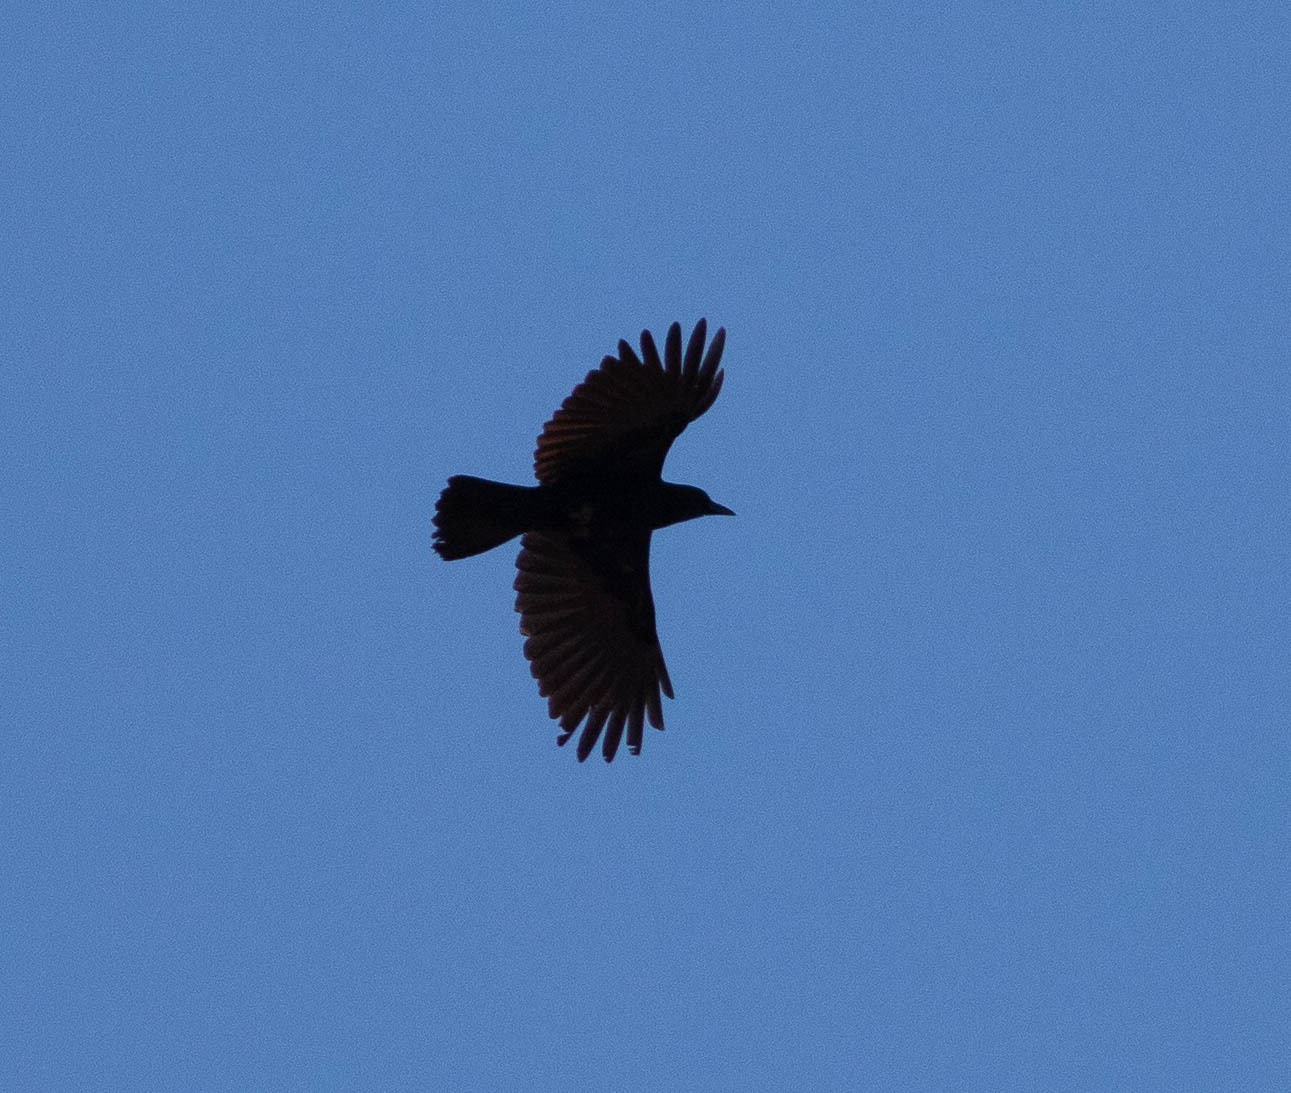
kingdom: Animalia
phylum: Chordata
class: Aves
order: Passeriformes
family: Corvidae
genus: Corvus
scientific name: Corvus brachyrhynchos
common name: American crow
